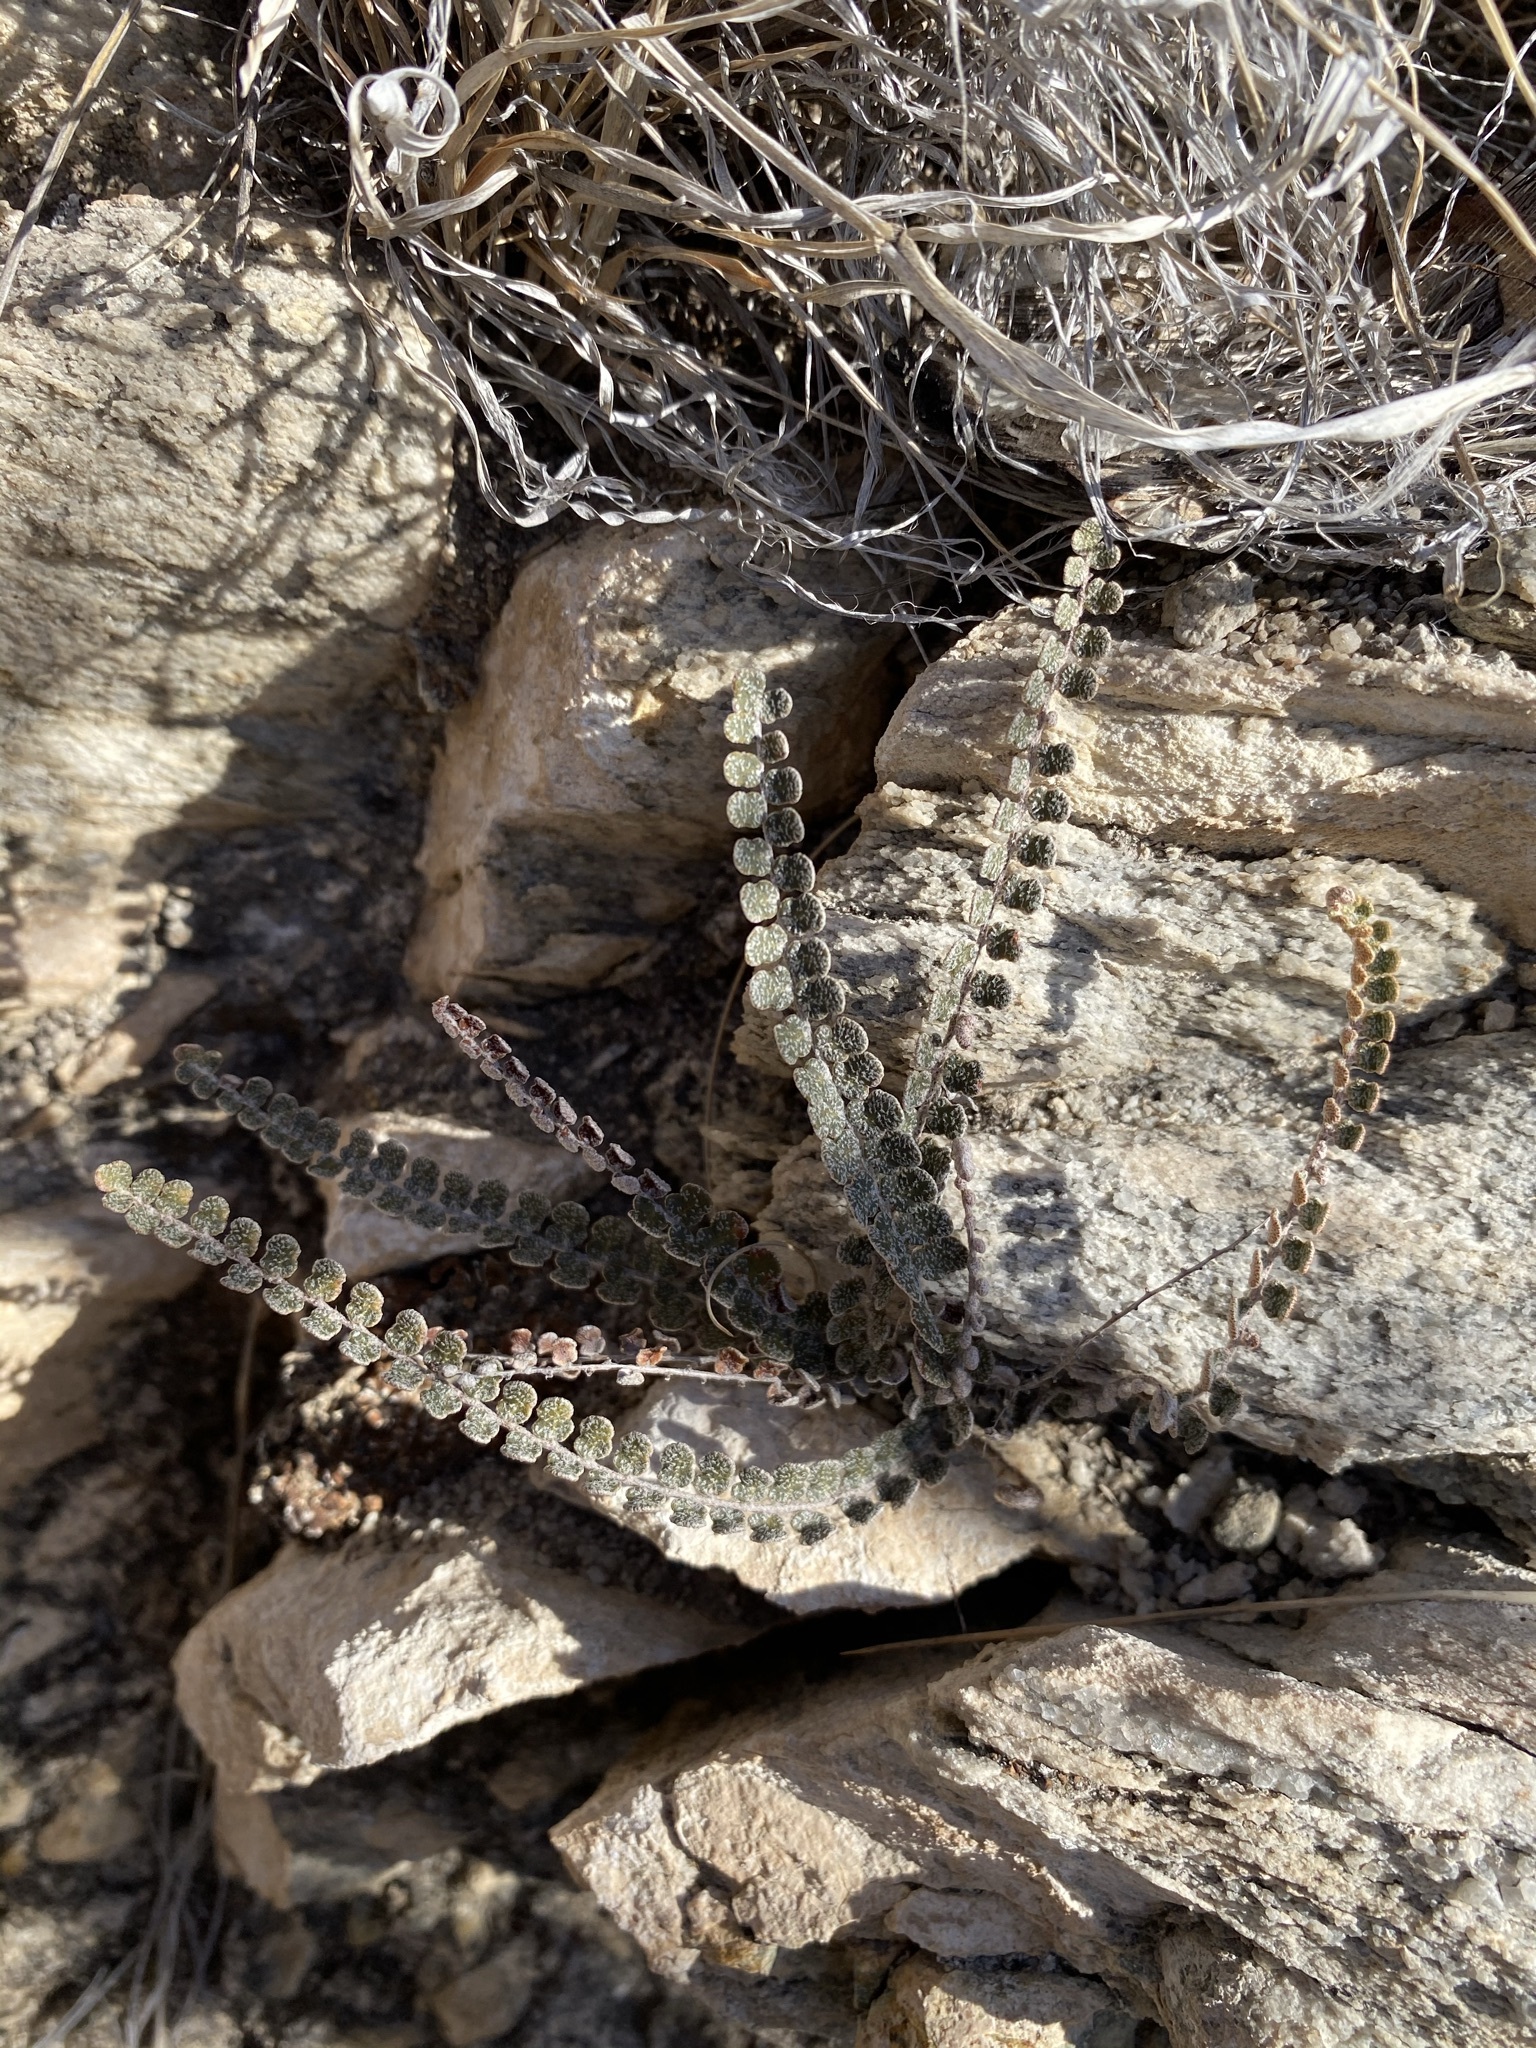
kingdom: Plantae
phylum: Tracheophyta
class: Polypodiopsida
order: Polypodiales
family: Pteridaceae
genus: Astrolepis
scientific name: Astrolepis cochisensis
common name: Scaly cloak fern
